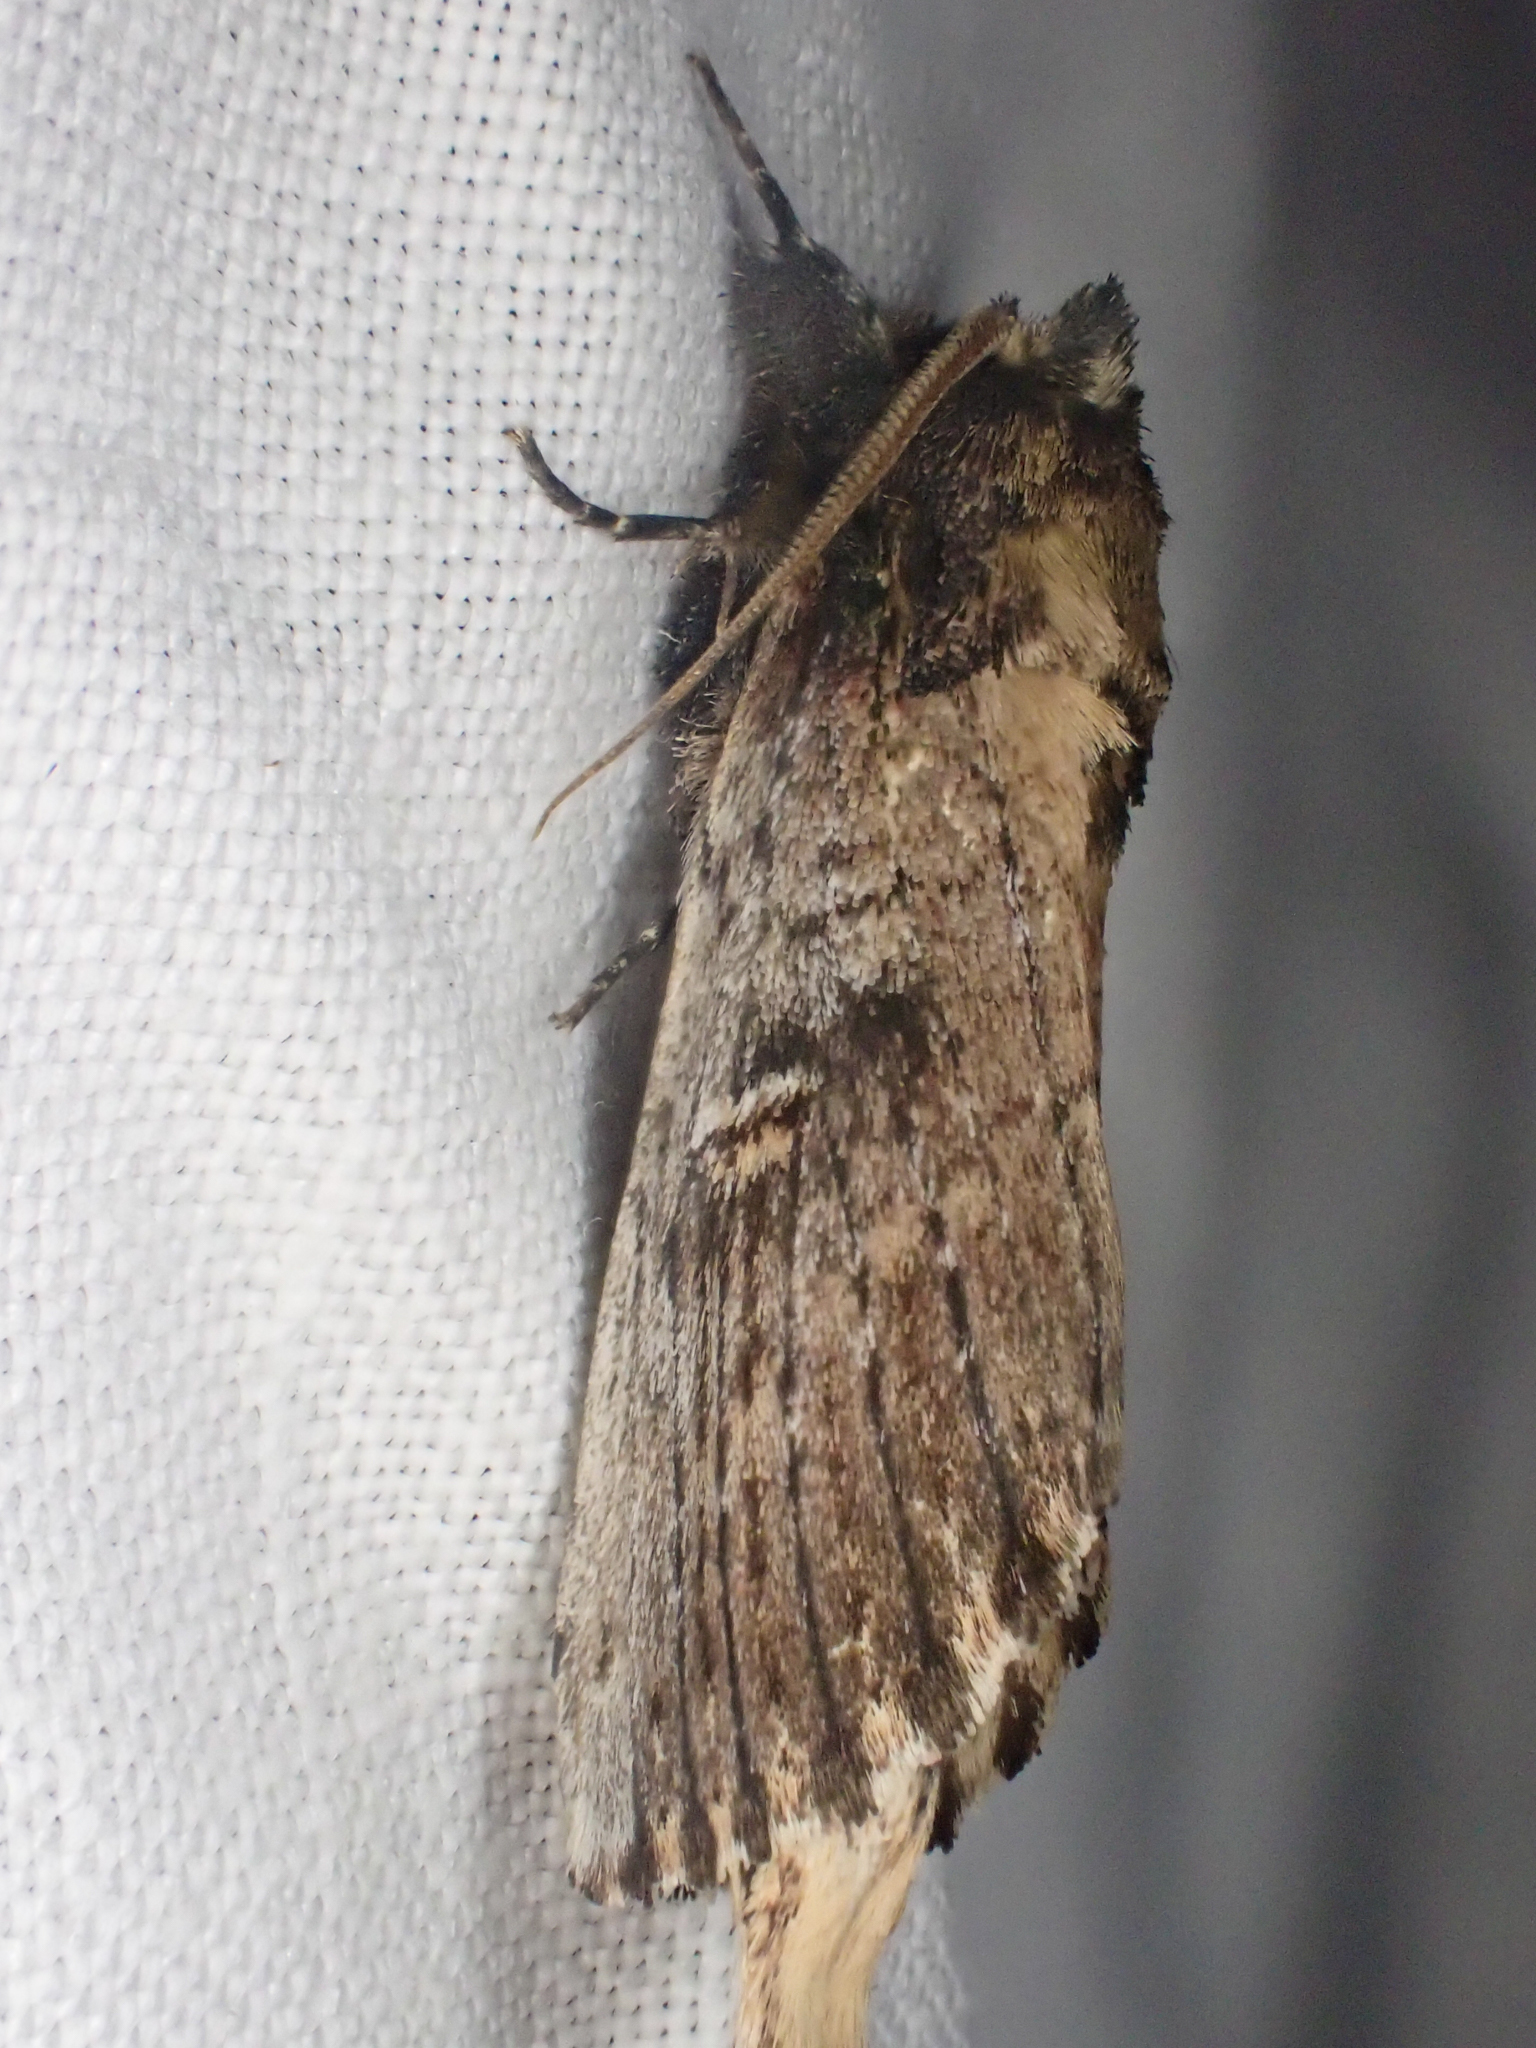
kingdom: Animalia
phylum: Arthropoda
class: Insecta
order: Lepidoptera
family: Notodontidae
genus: Schizura
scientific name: Schizura ipomaeae
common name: Morning-glory prominent
